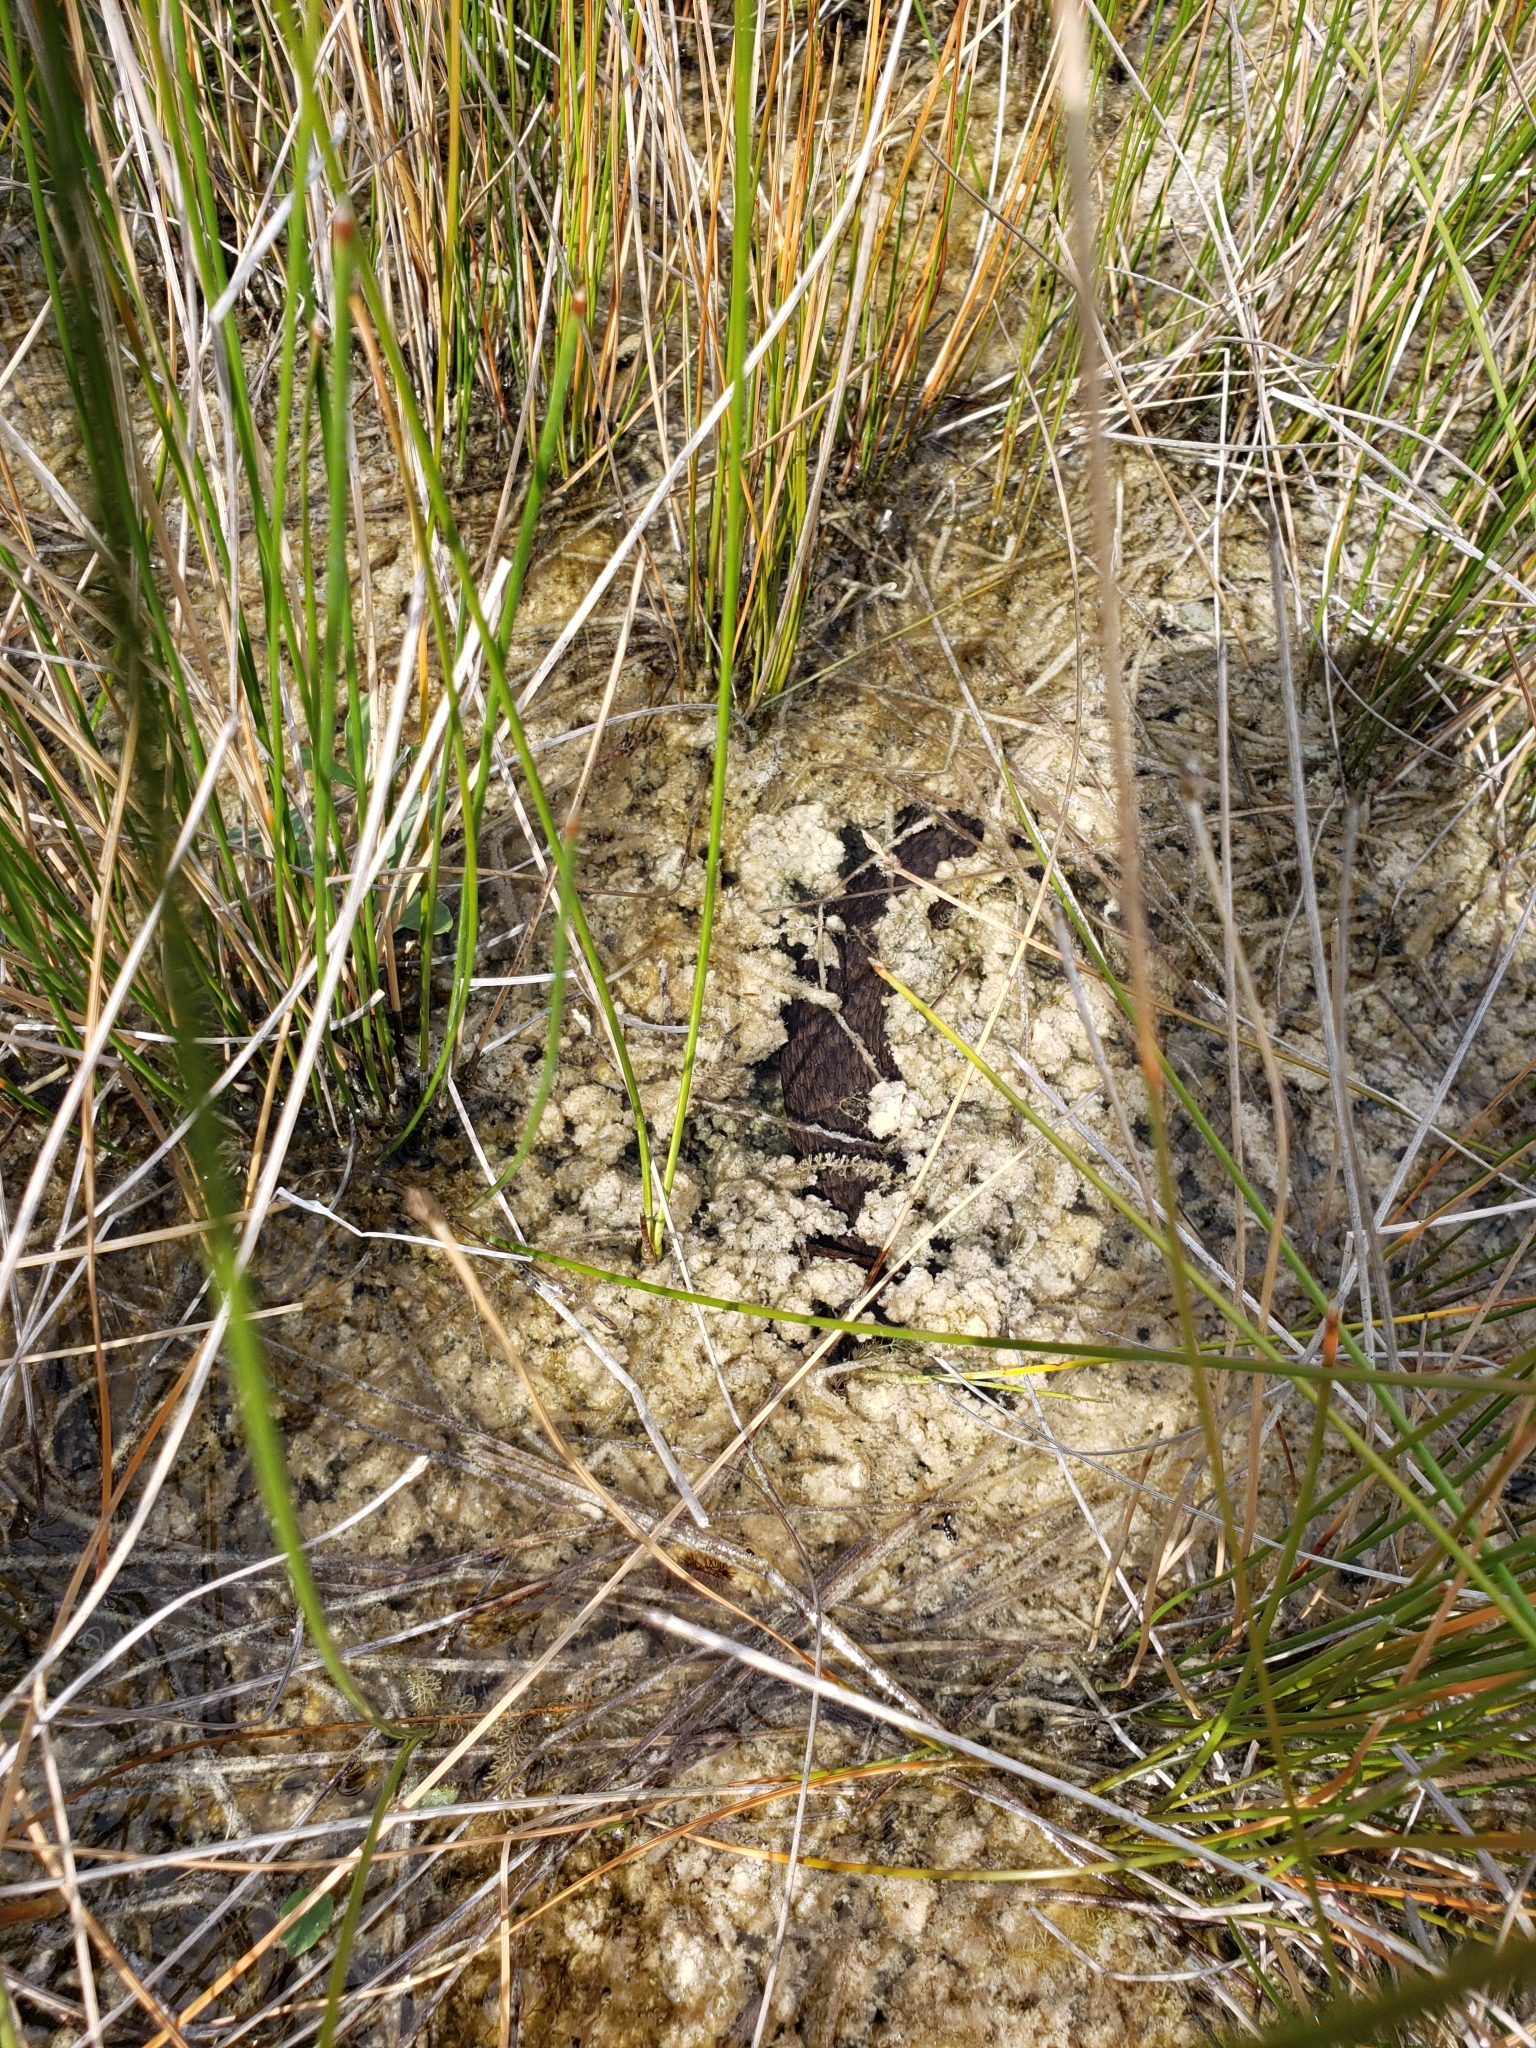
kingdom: Animalia
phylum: Chordata
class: Squamata
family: Colubridae
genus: Nerodia
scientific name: Nerodia sipedon
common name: Northern water snake
